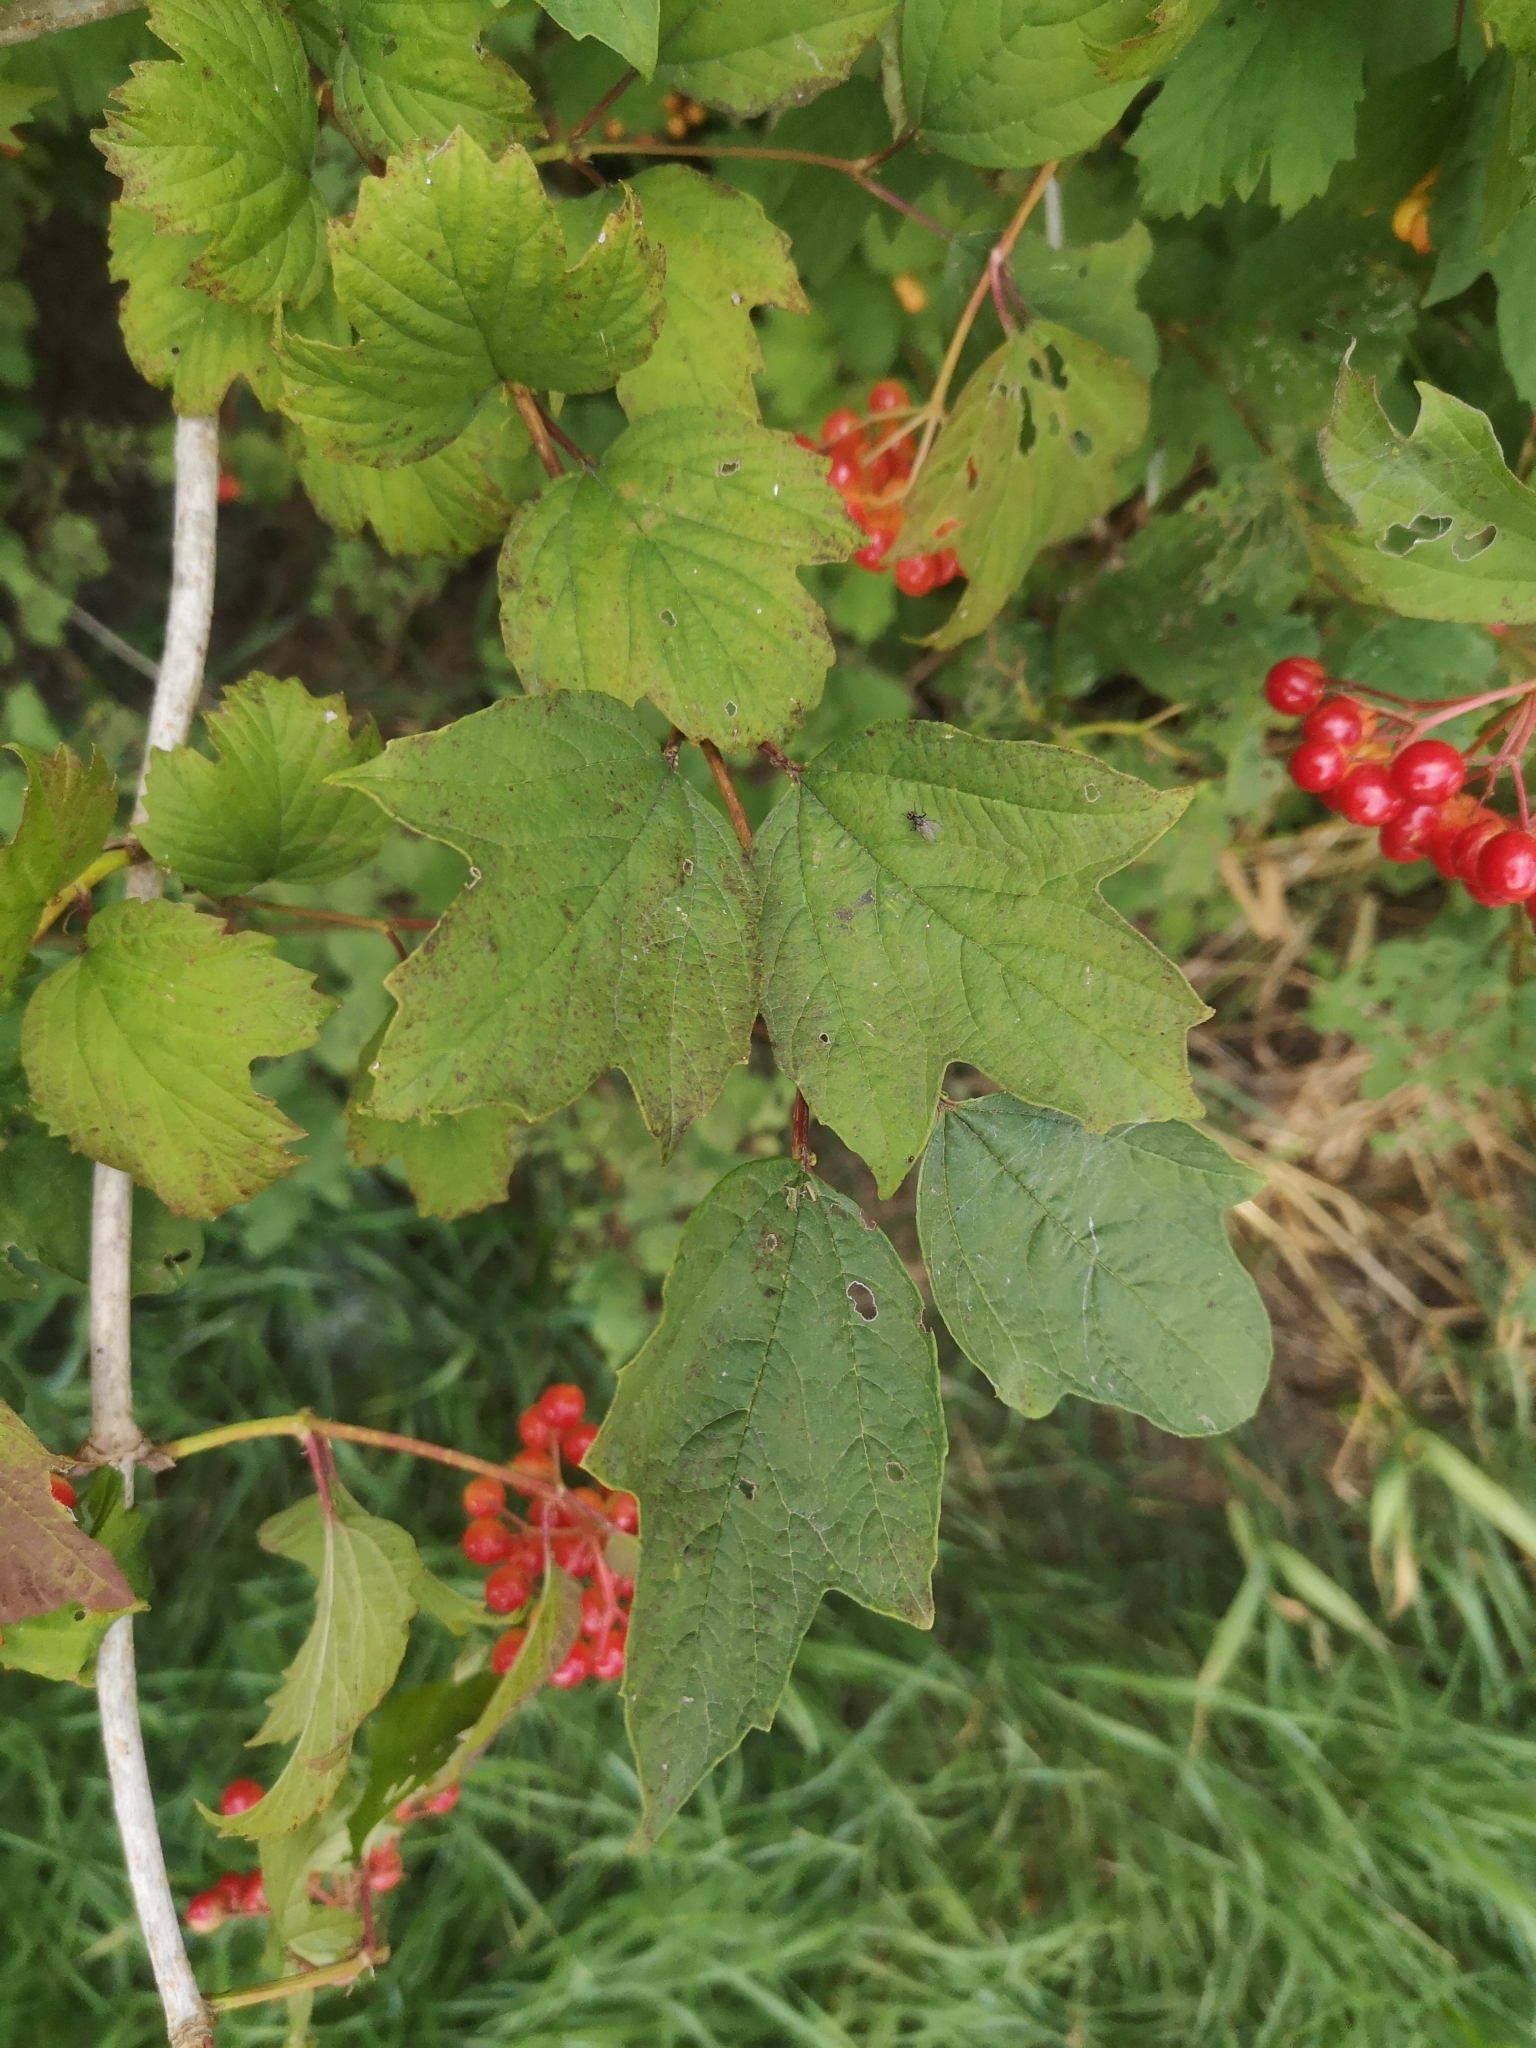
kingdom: Plantae
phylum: Tracheophyta
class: Magnoliopsida
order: Dipsacales
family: Viburnaceae
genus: Viburnum
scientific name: Viburnum opulus
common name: Guelder-rose
